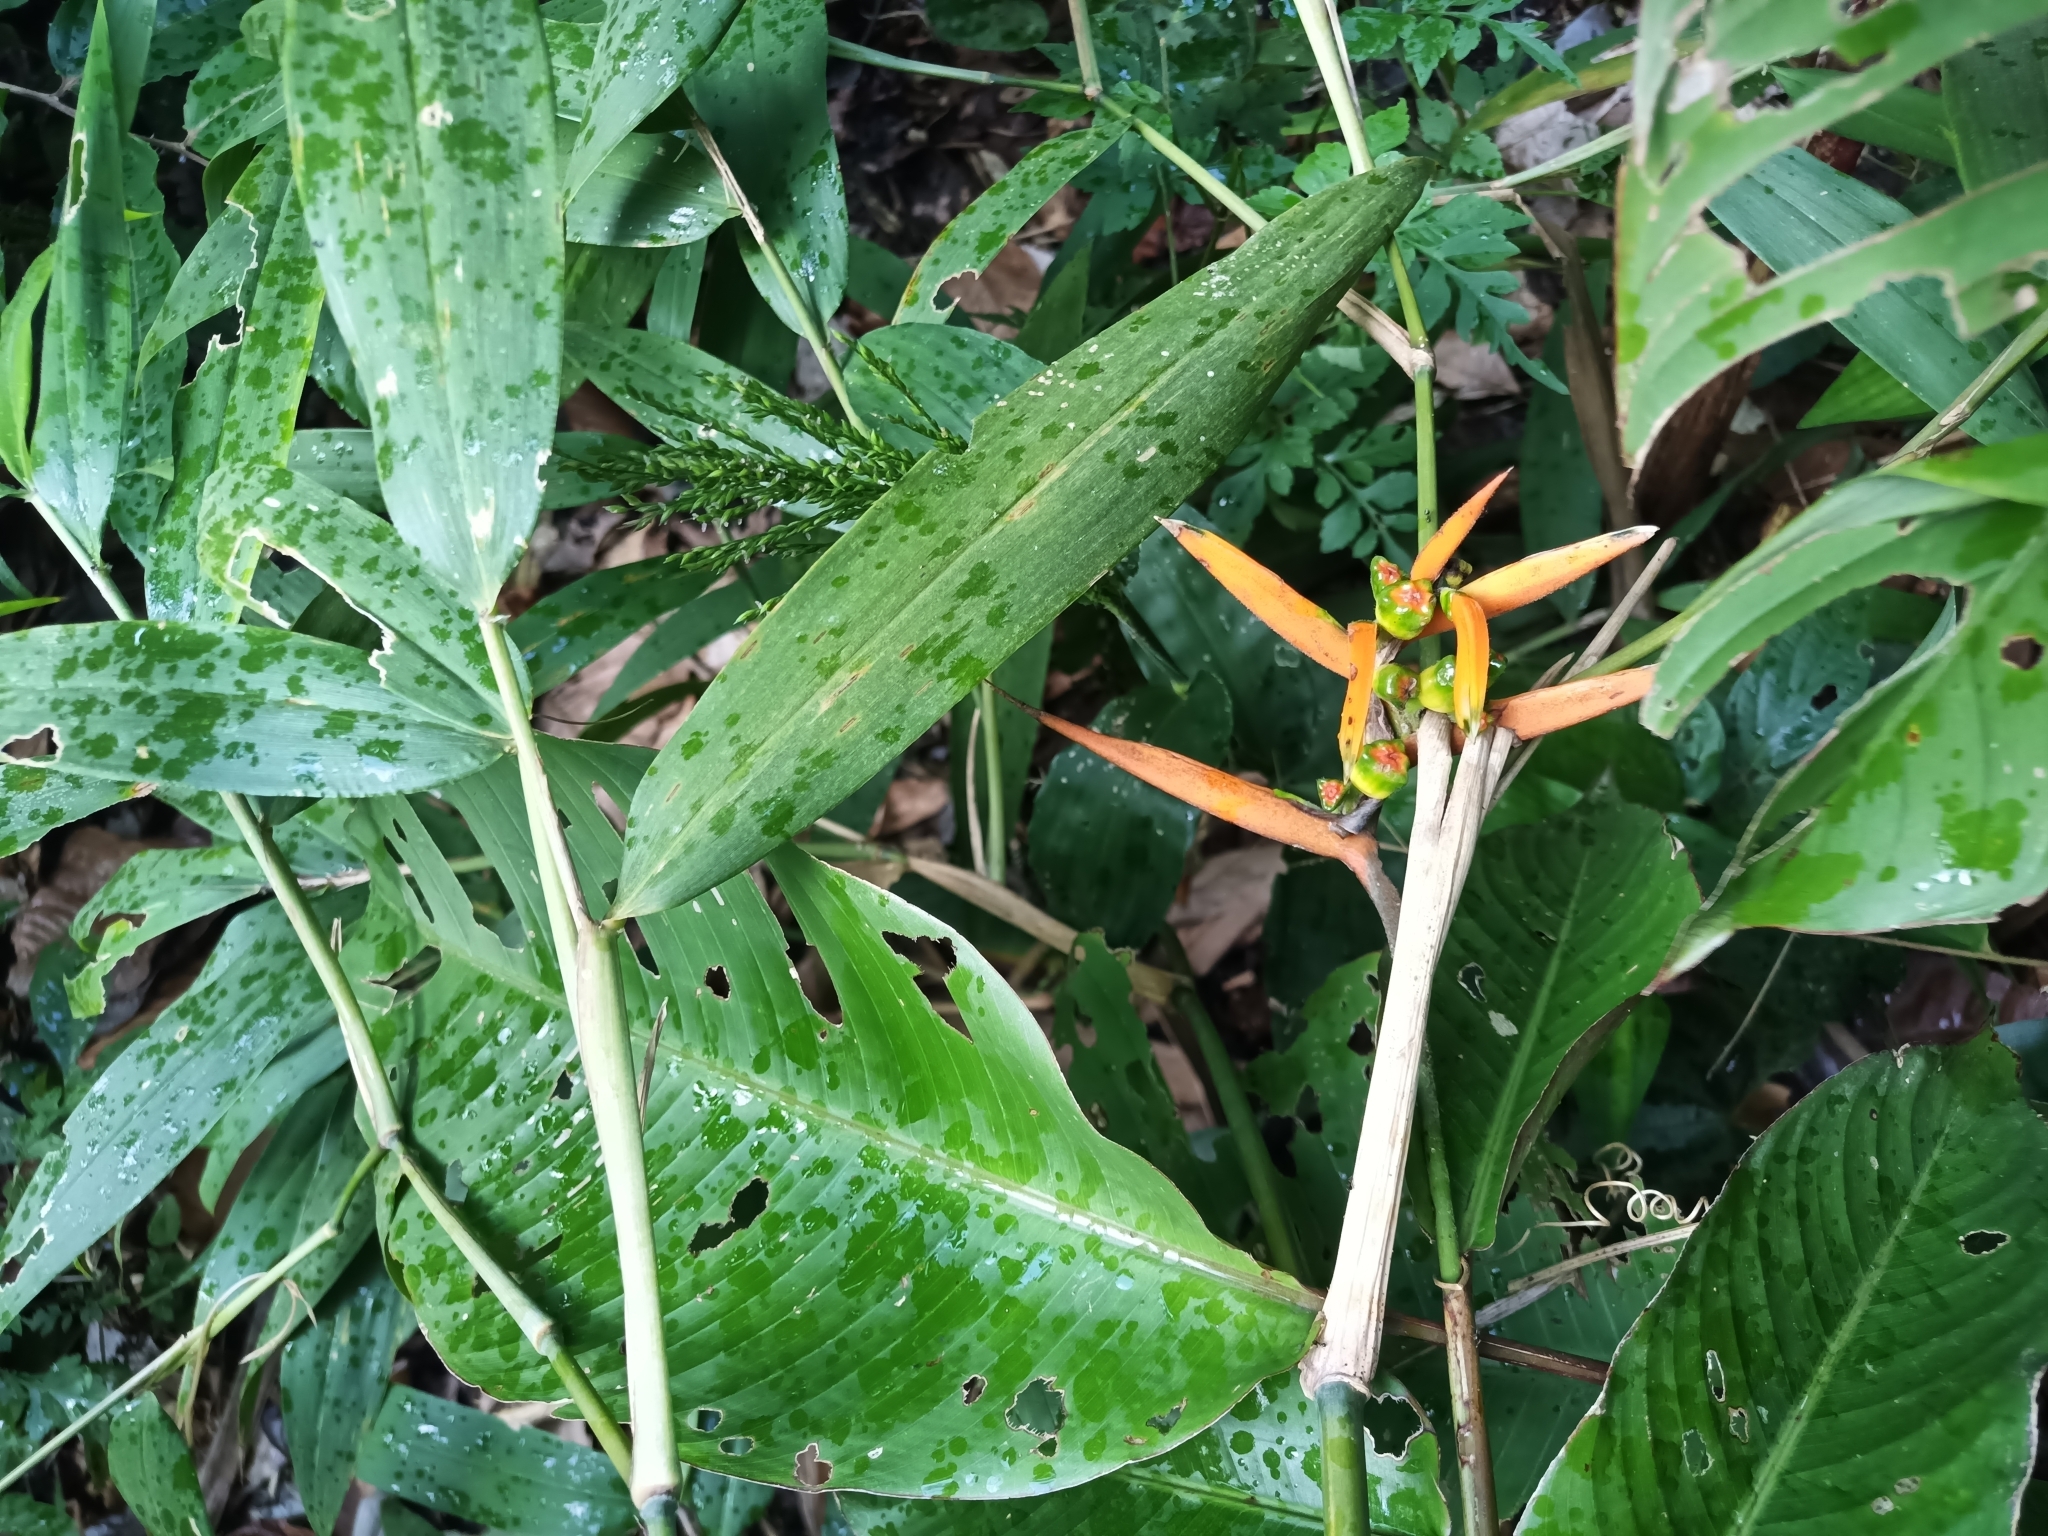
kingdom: Plantae
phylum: Tracheophyta
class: Liliopsida
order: Zingiberales
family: Heliconiaceae
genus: Heliconia
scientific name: Heliconia hirsuta
